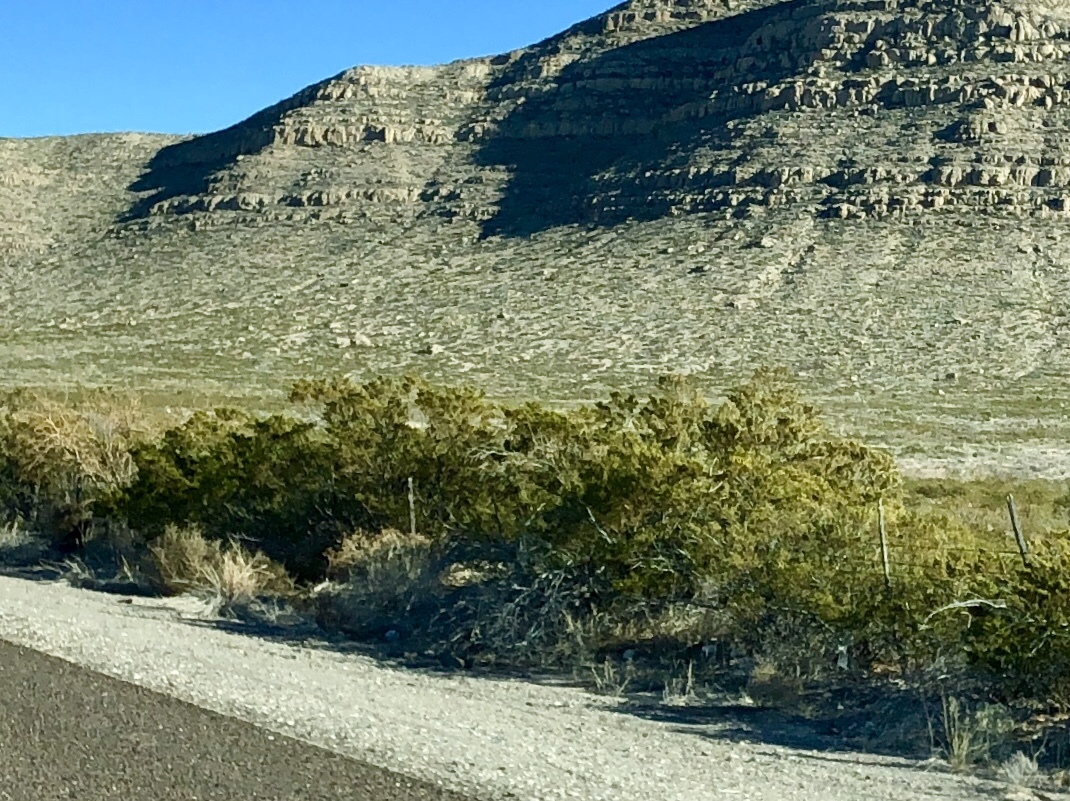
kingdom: Plantae
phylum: Tracheophyta
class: Magnoliopsida
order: Zygophyllales
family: Zygophyllaceae
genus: Larrea
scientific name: Larrea tridentata
